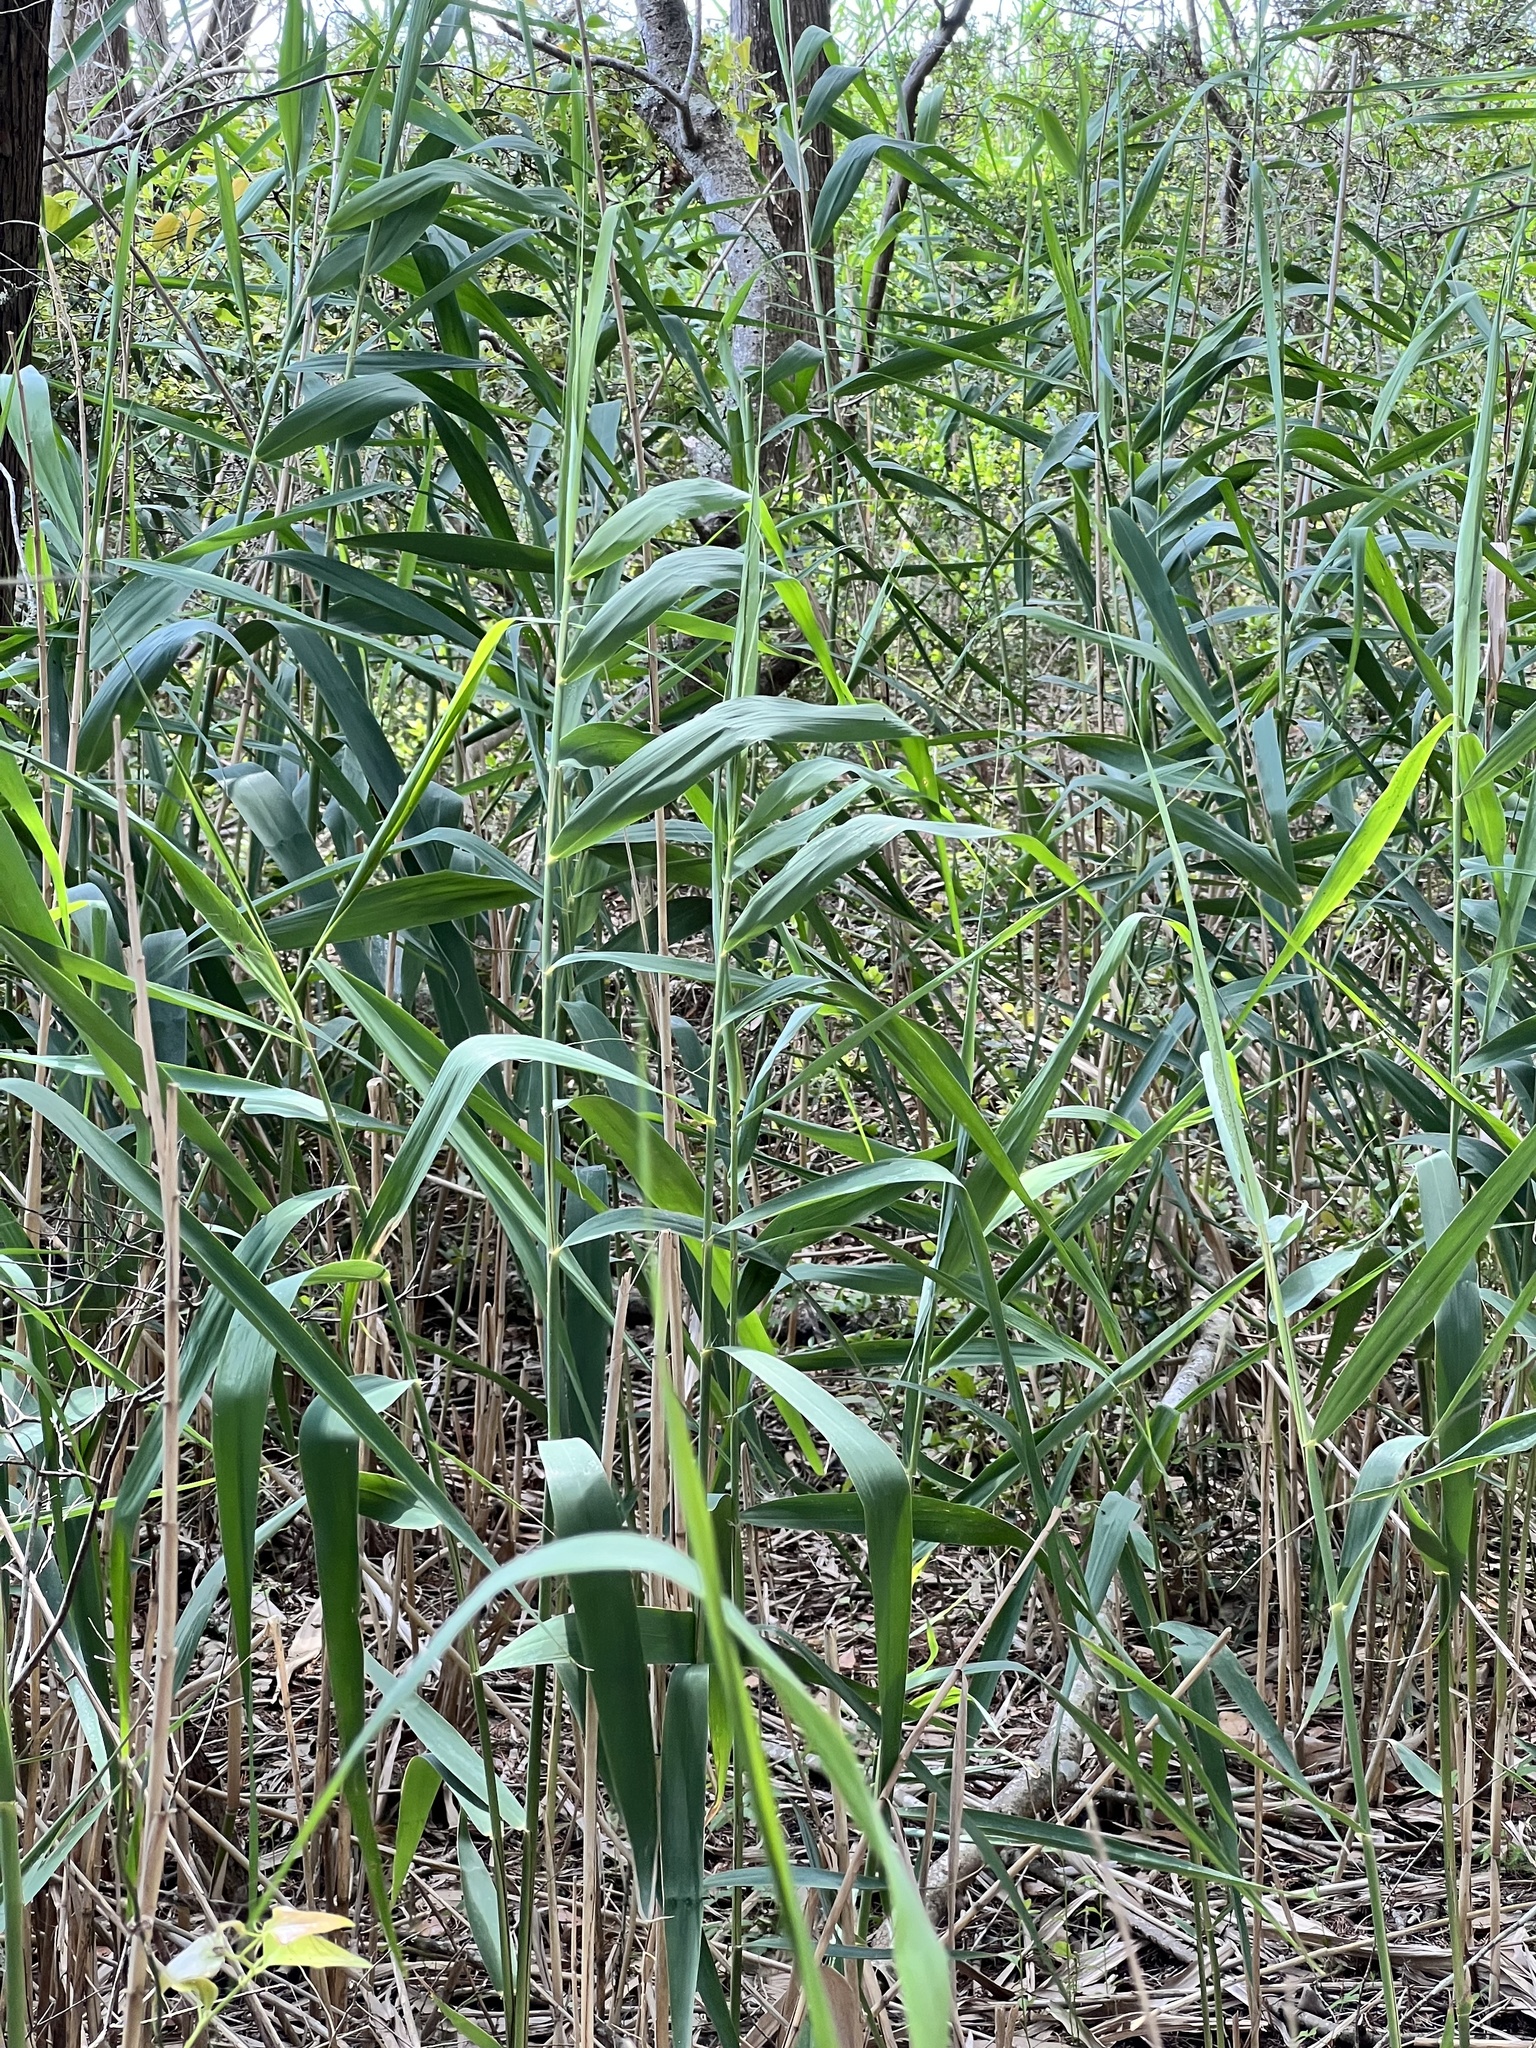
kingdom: Plantae
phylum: Tracheophyta
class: Liliopsida
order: Poales
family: Poaceae
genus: Phragmites
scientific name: Phragmites australis
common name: Common reed
